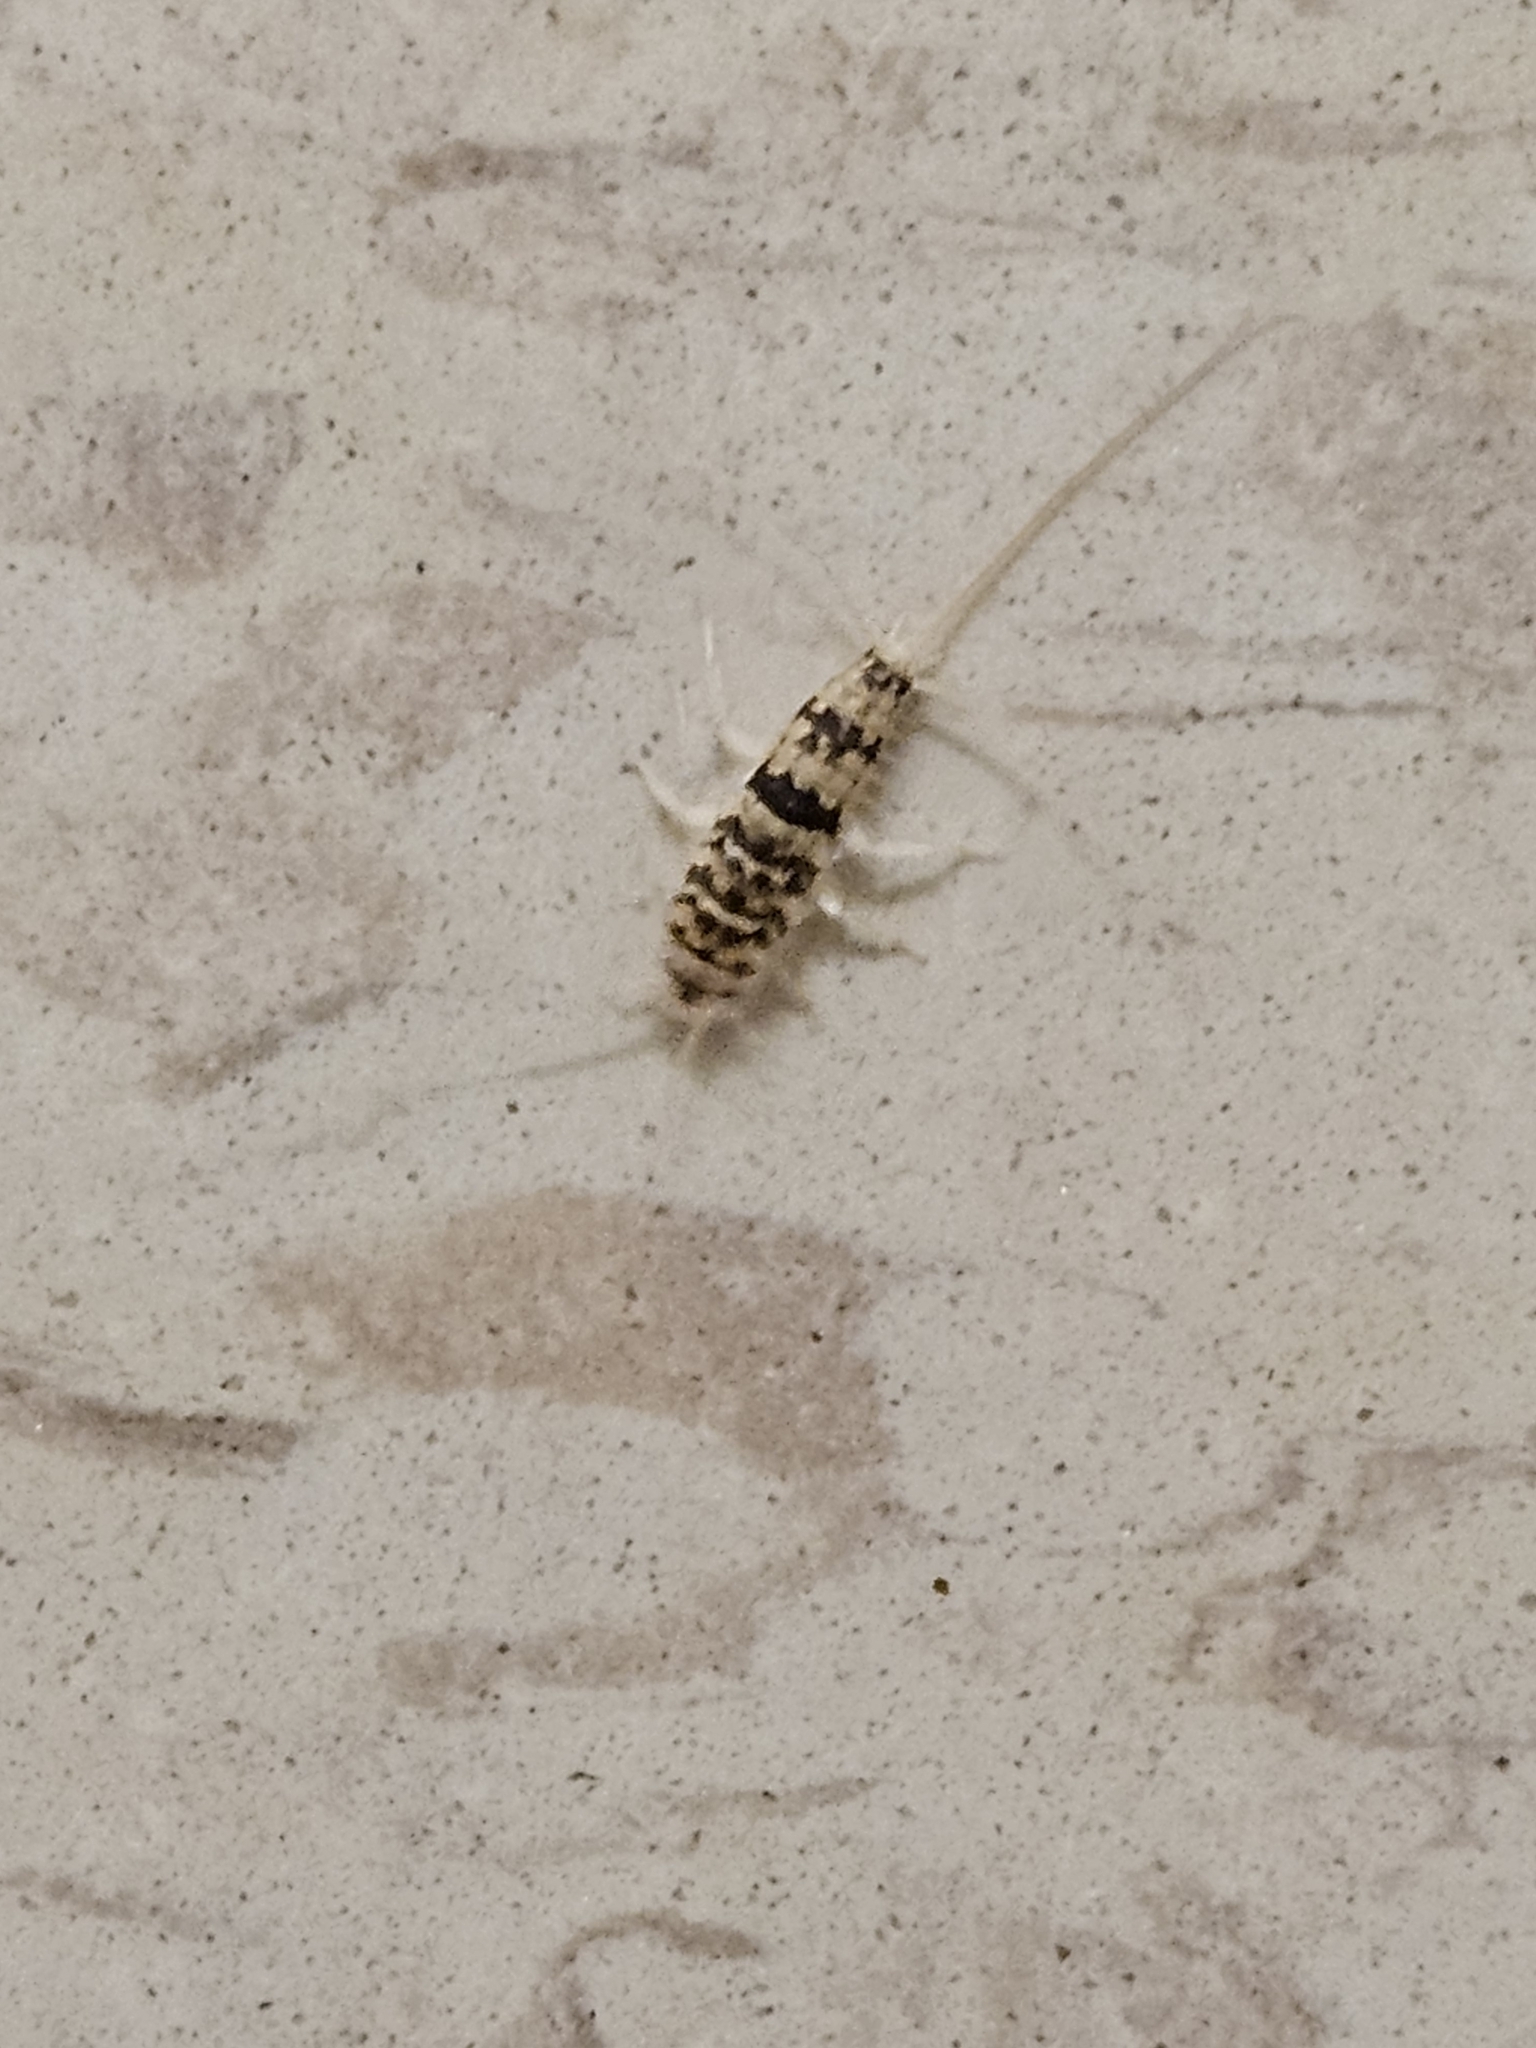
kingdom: Animalia
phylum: Arthropoda
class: Insecta
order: Zygentoma
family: Lepismatidae
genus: Thermobia
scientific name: Thermobia domestica
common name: Firebrat
